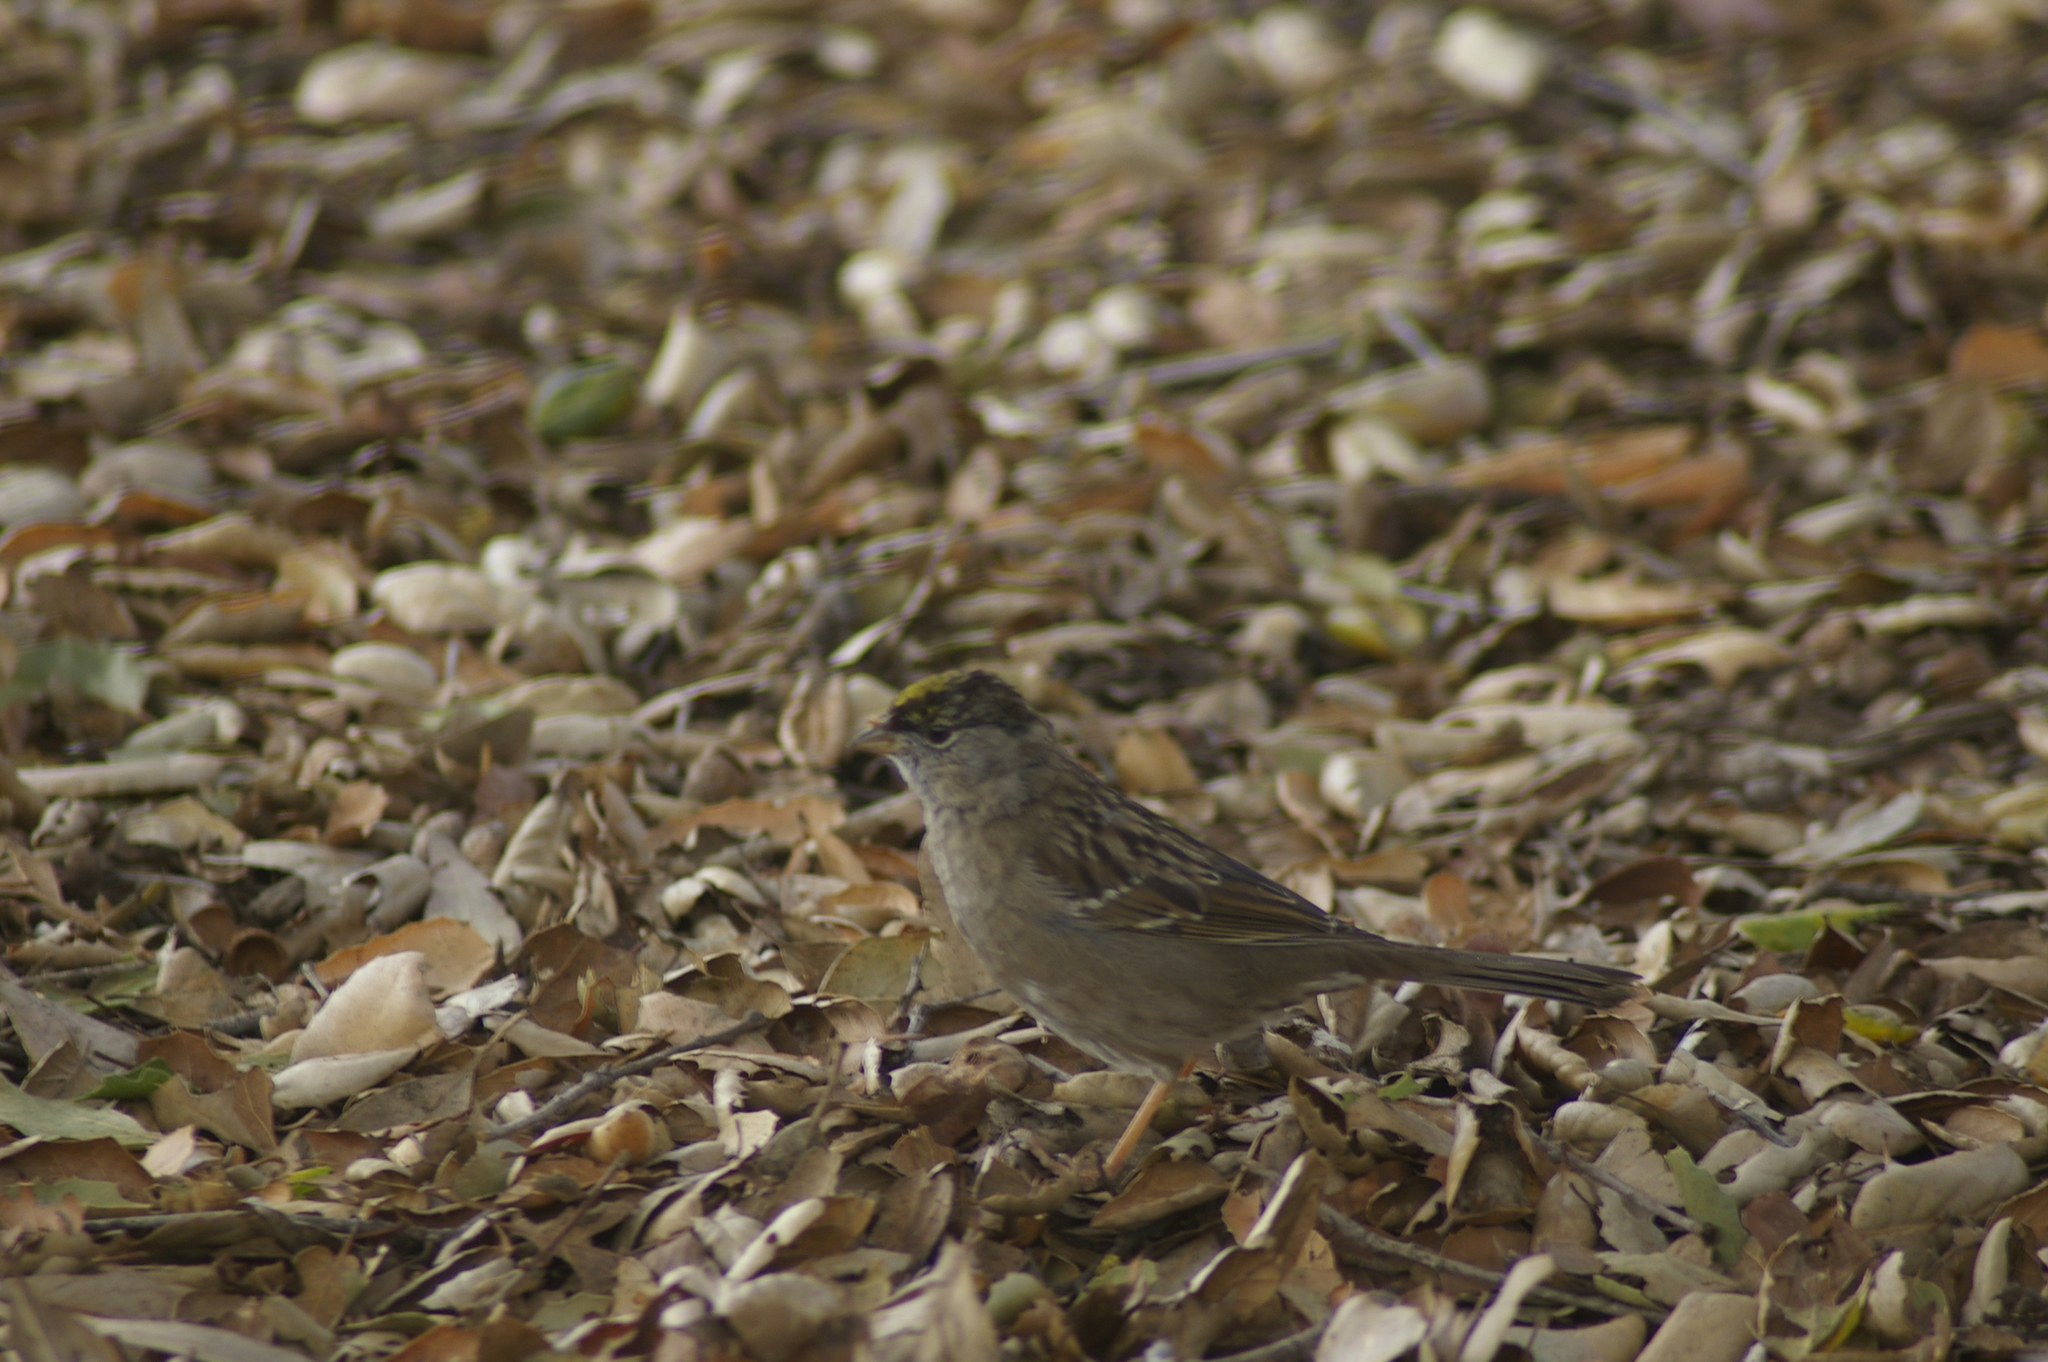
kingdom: Animalia
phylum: Chordata
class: Aves
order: Passeriformes
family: Passerellidae
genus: Zonotrichia
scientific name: Zonotrichia atricapilla
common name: Golden-crowned sparrow
